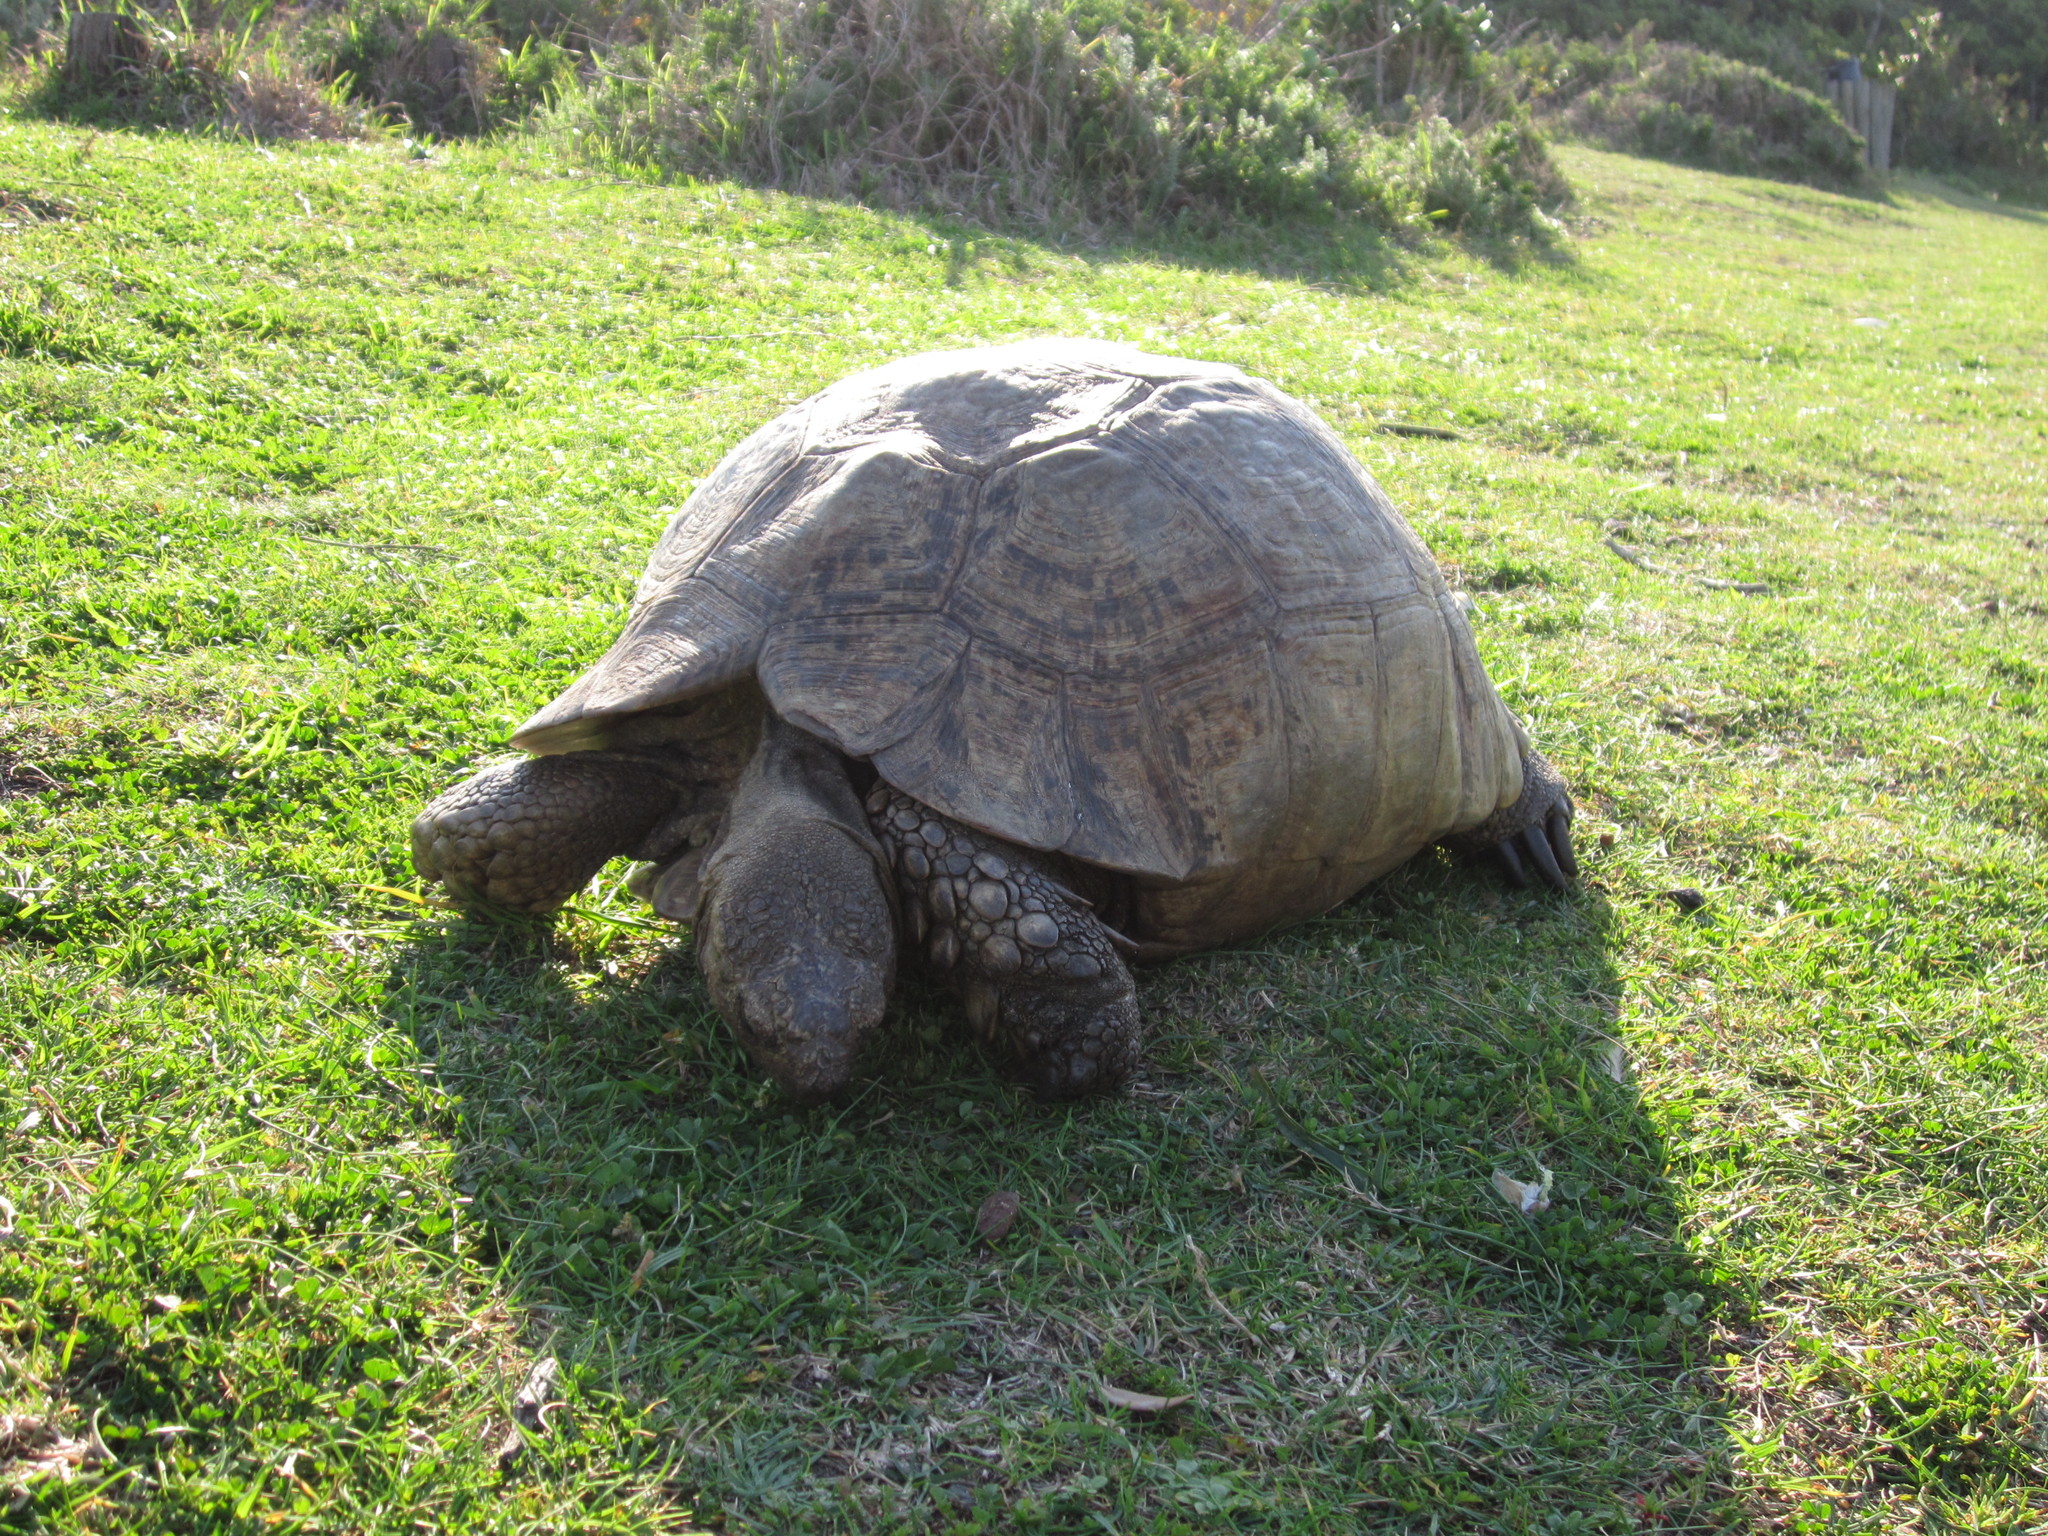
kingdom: Animalia
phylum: Chordata
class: Testudines
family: Testudinidae
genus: Stigmochelys
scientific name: Stigmochelys pardalis
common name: Leopard tortoise
